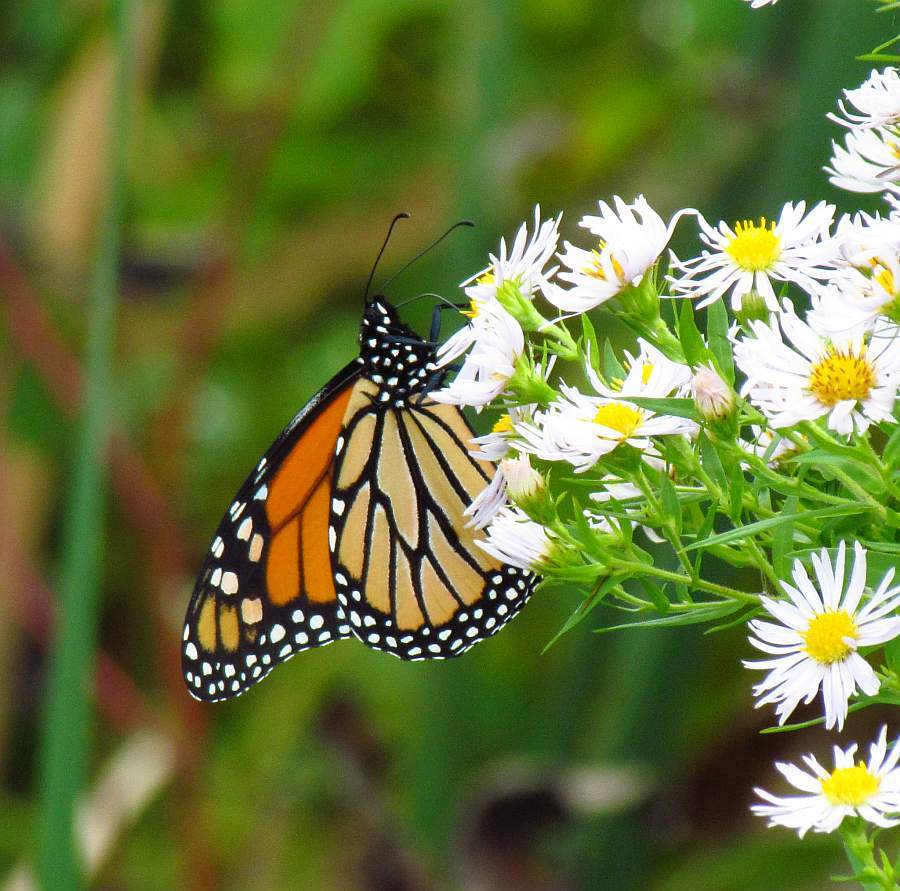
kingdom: Animalia
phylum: Arthropoda
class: Insecta
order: Lepidoptera
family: Nymphalidae
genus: Danaus
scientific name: Danaus plexippus
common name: Monarch
